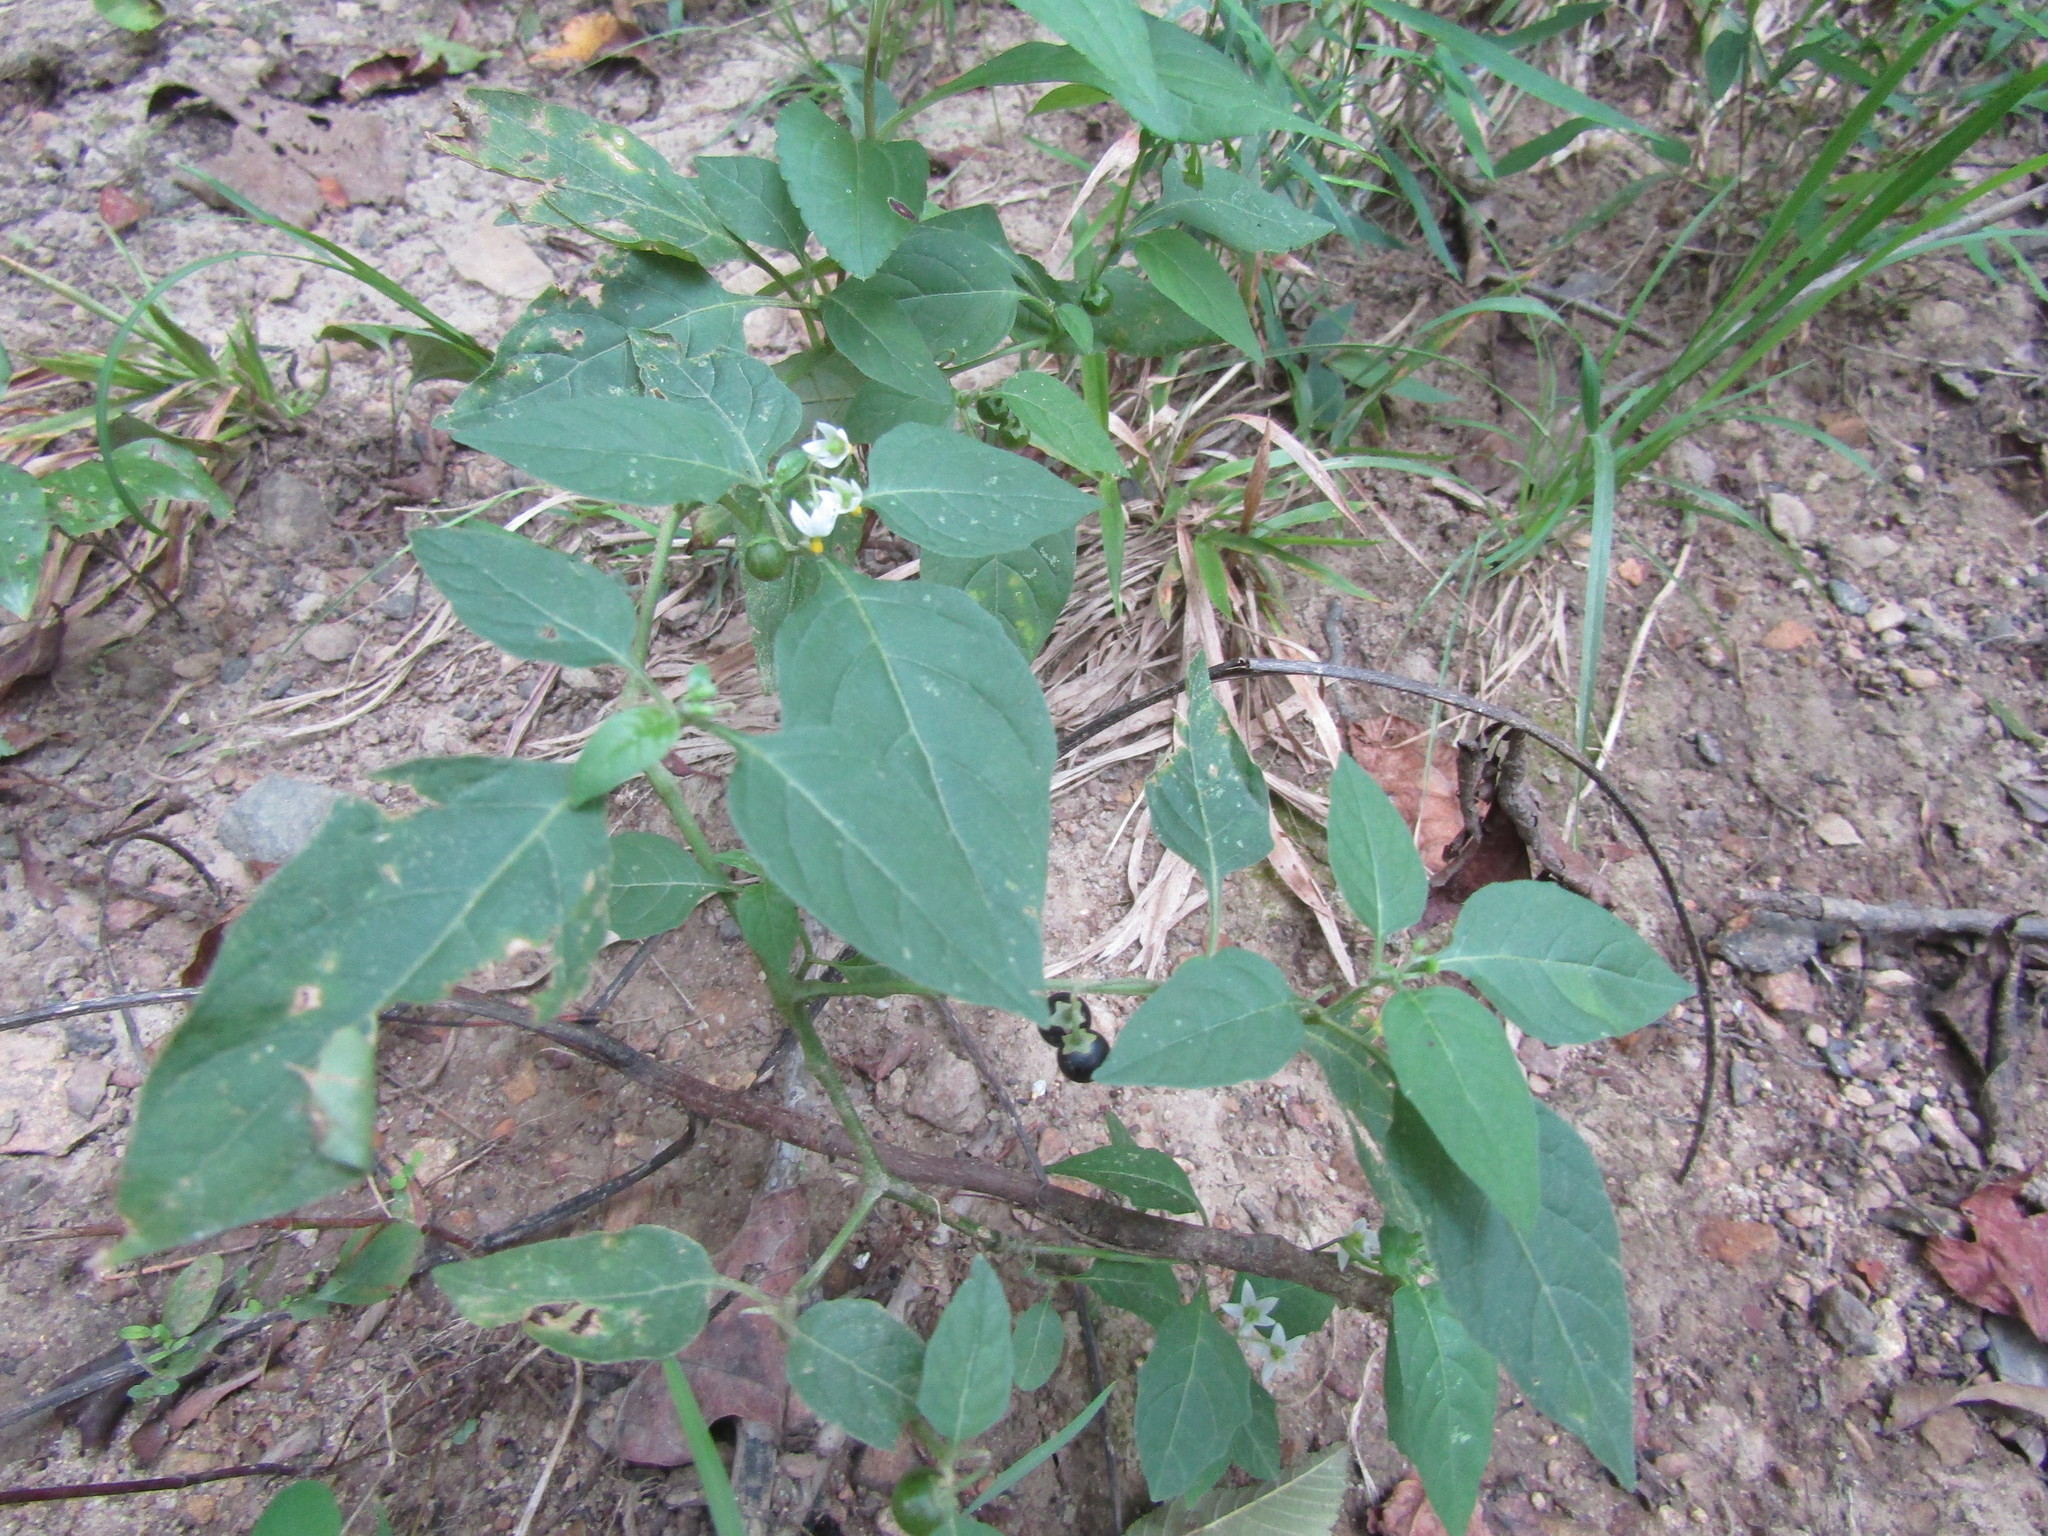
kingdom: Plantae
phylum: Tracheophyta
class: Magnoliopsida
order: Solanales
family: Solanaceae
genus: Solanum
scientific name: Solanum emulans
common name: Eastern black nightshade
